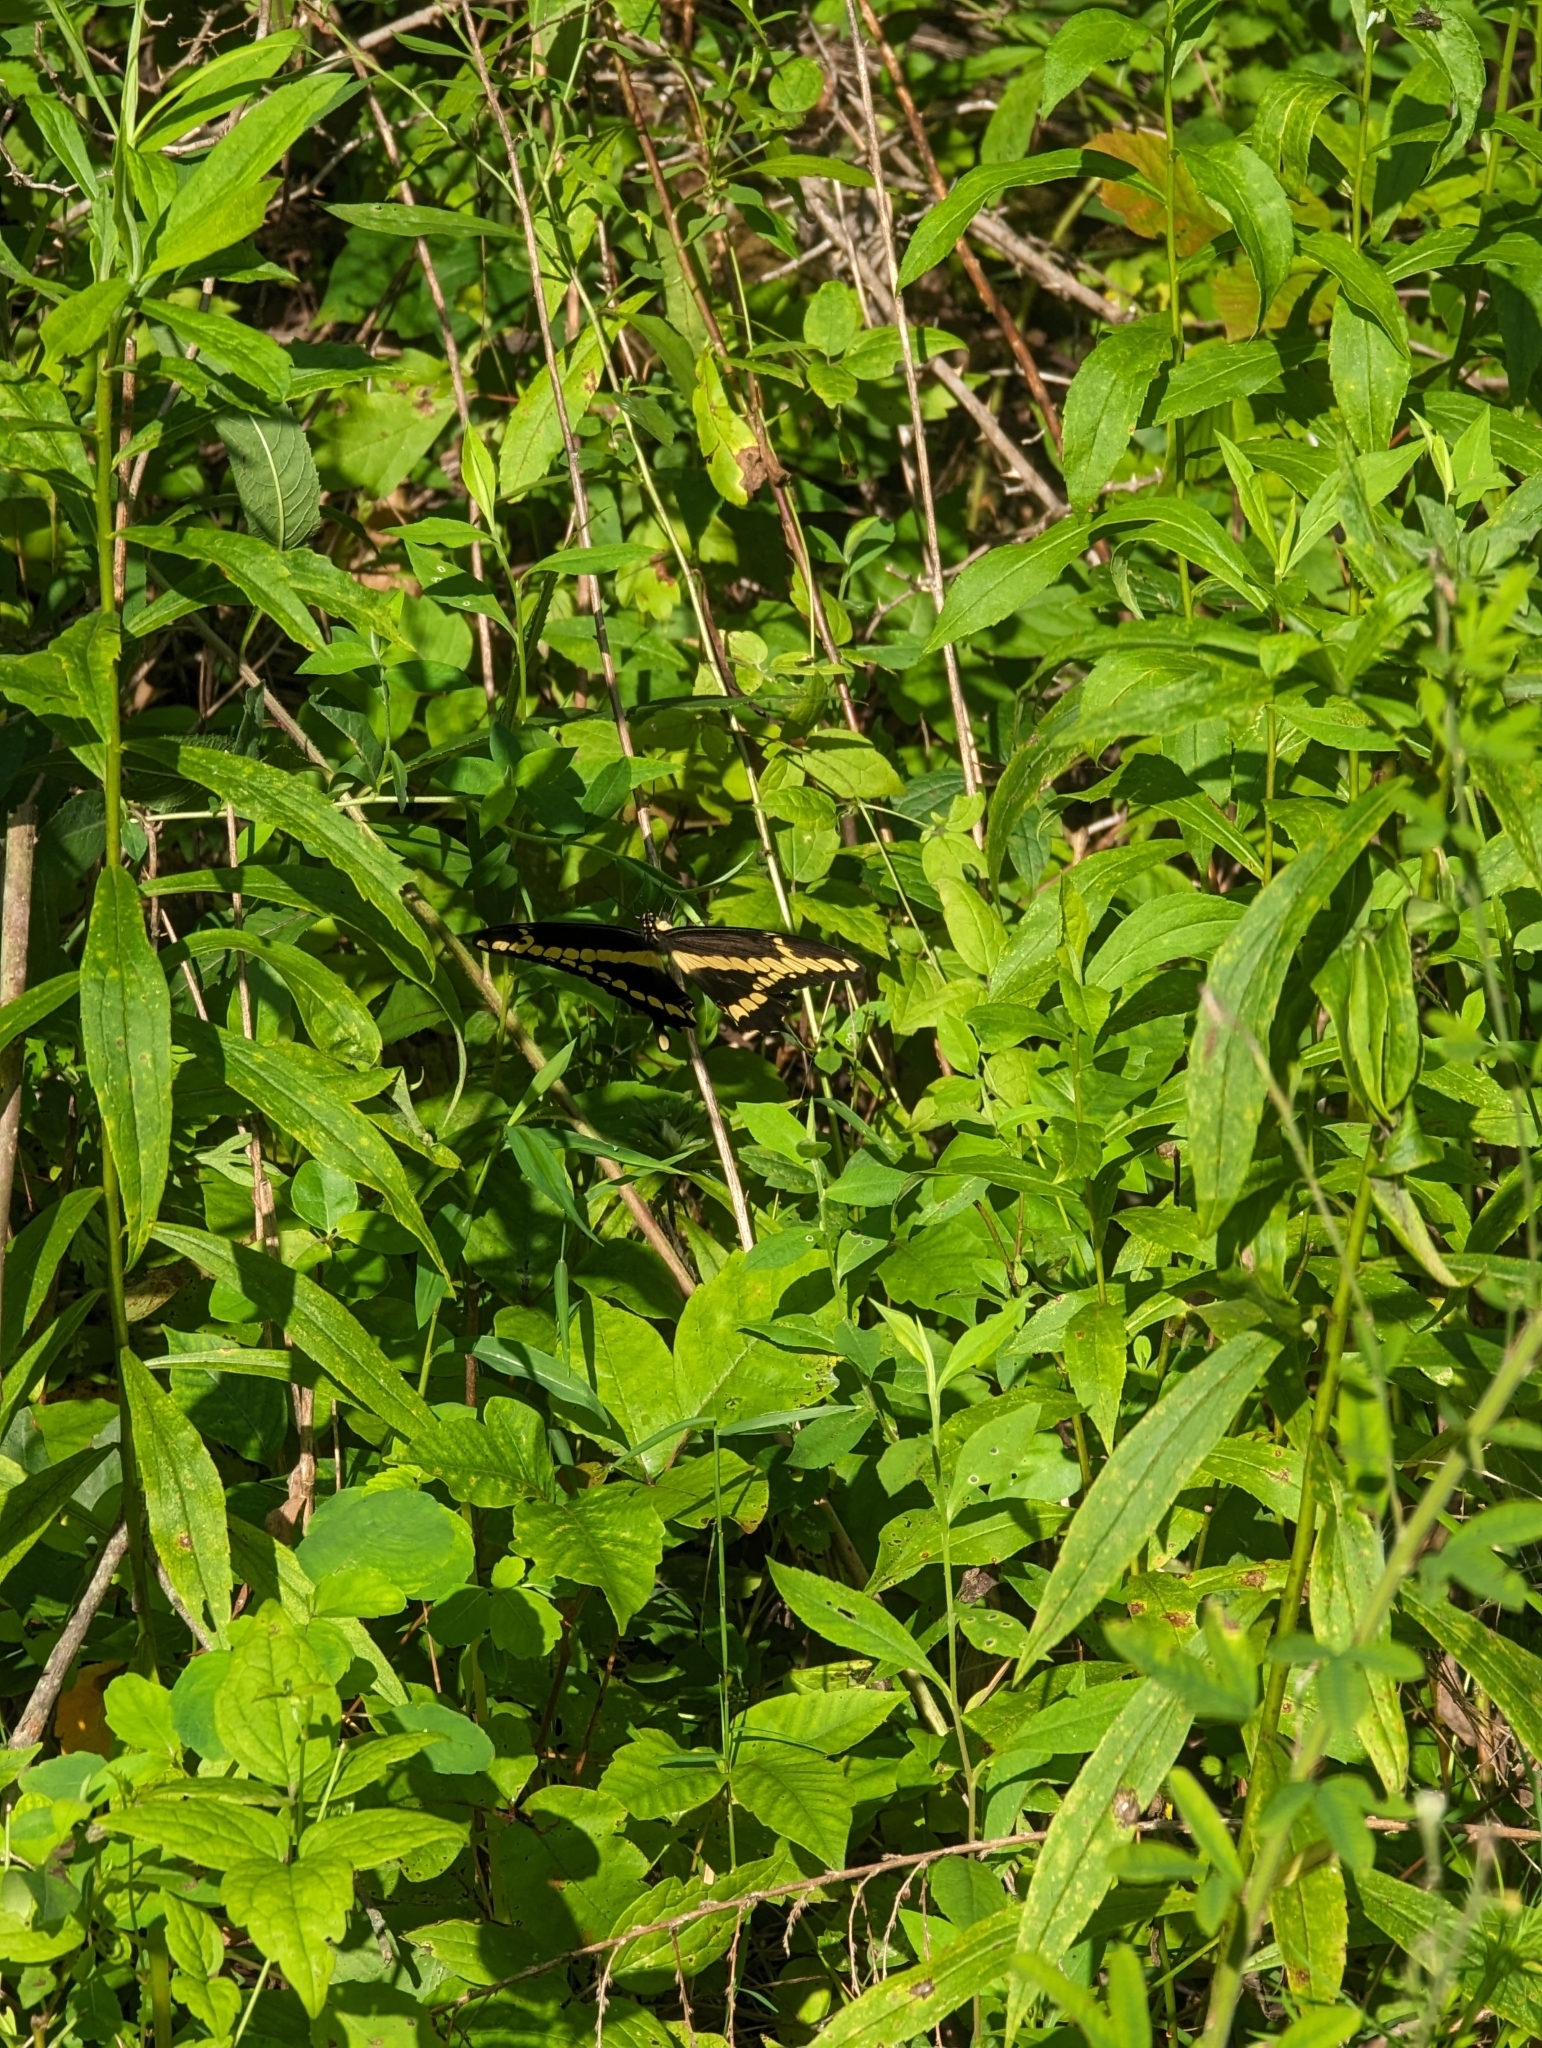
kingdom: Animalia
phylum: Arthropoda
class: Insecta
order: Lepidoptera
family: Papilionidae
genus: Papilio
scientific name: Papilio cresphontes
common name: Giant swallowtail
